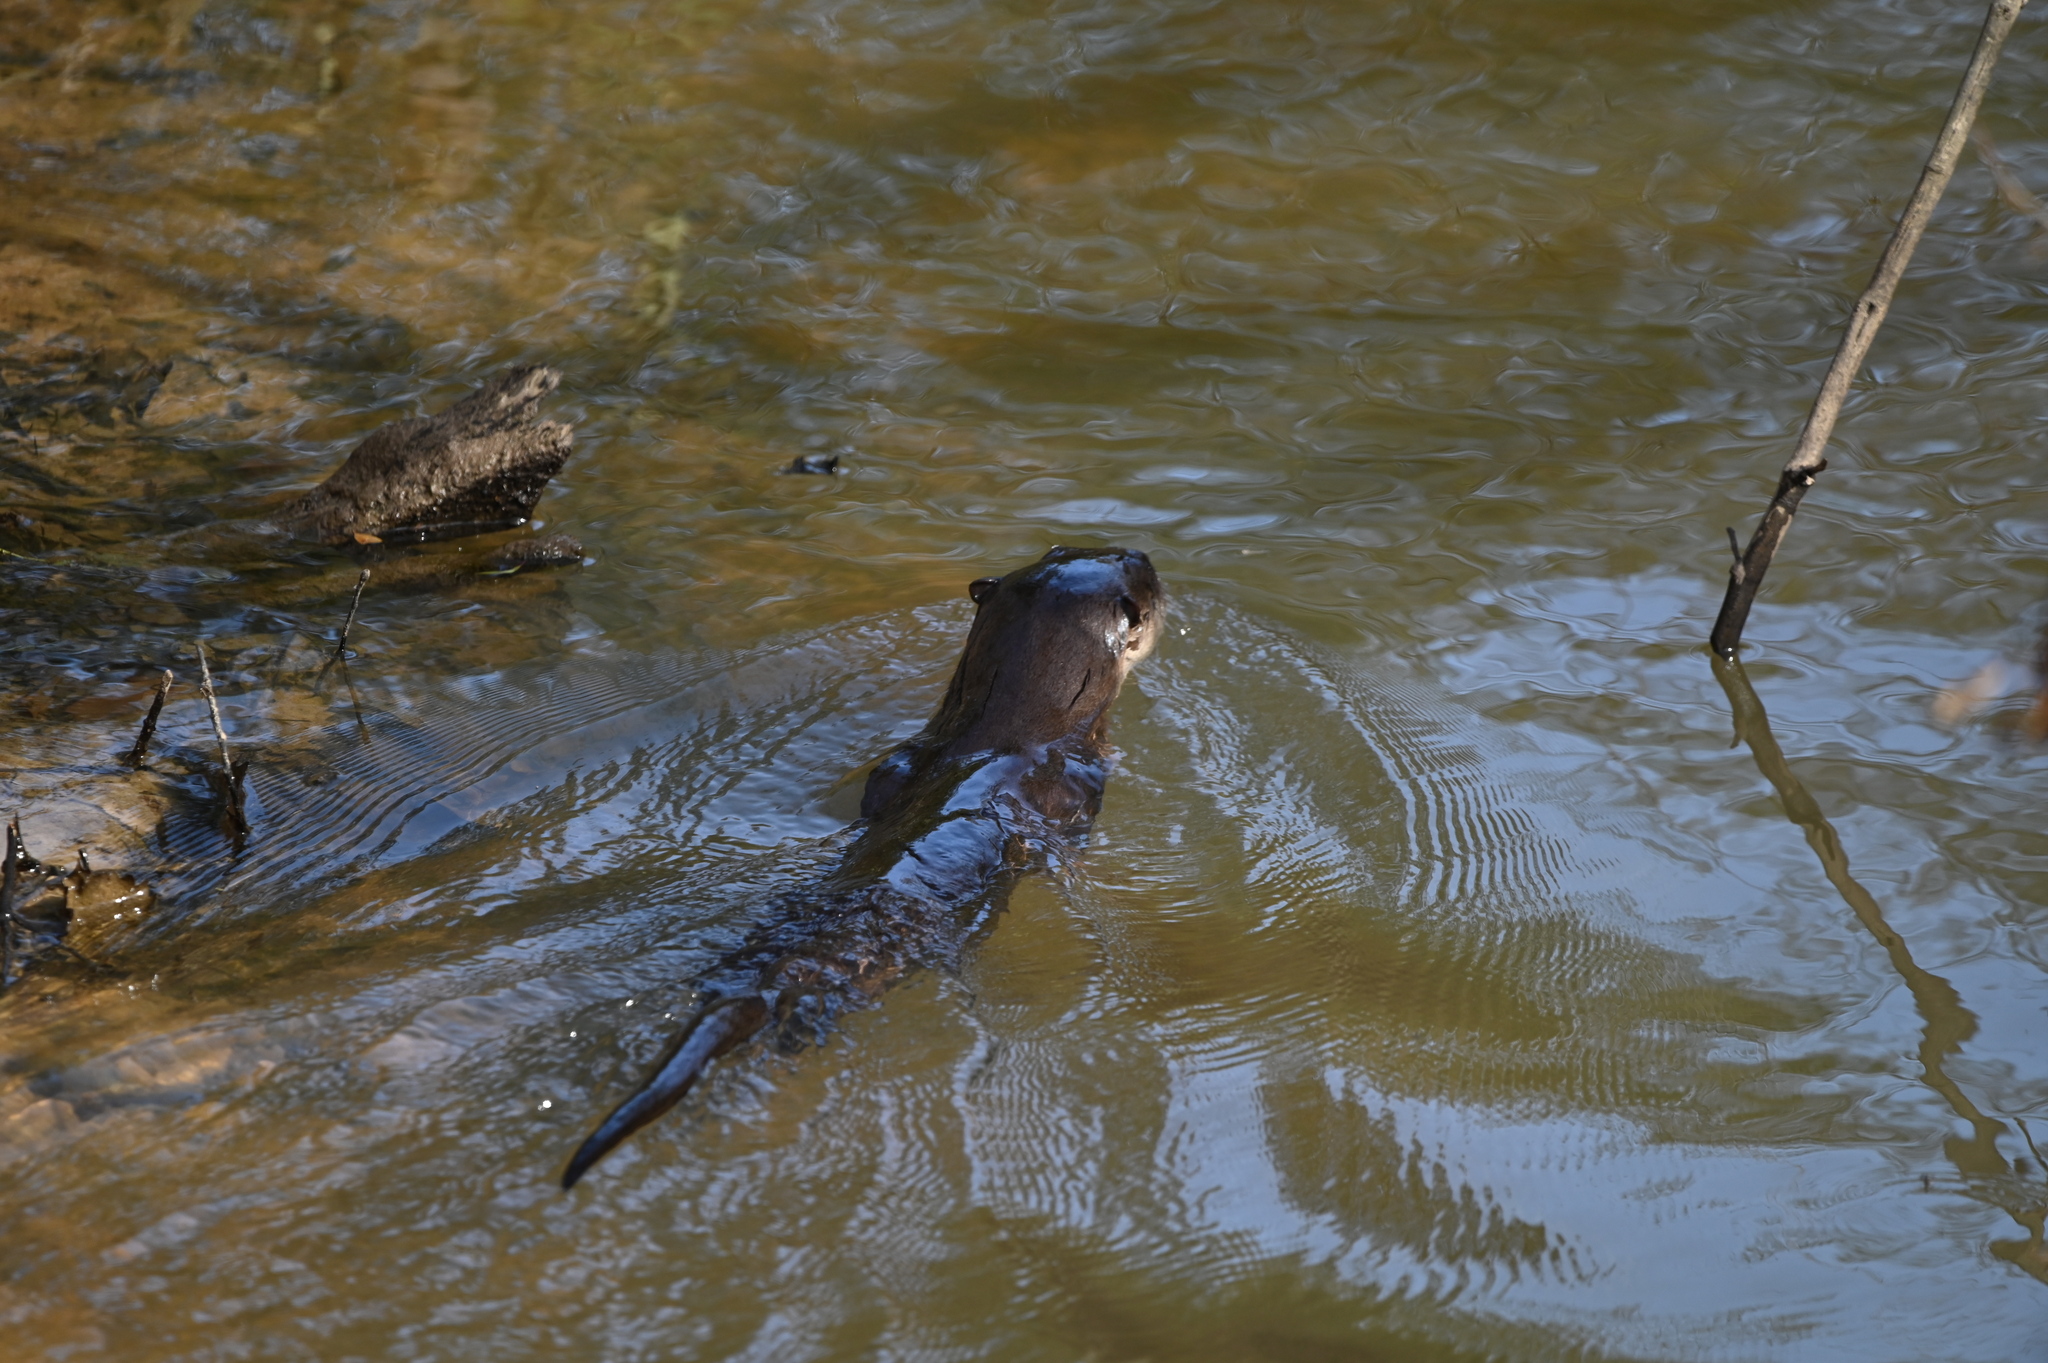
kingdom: Animalia
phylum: Chordata
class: Mammalia
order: Carnivora
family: Mustelidae
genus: Lontra
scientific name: Lontra canadensis
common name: North american river otter
